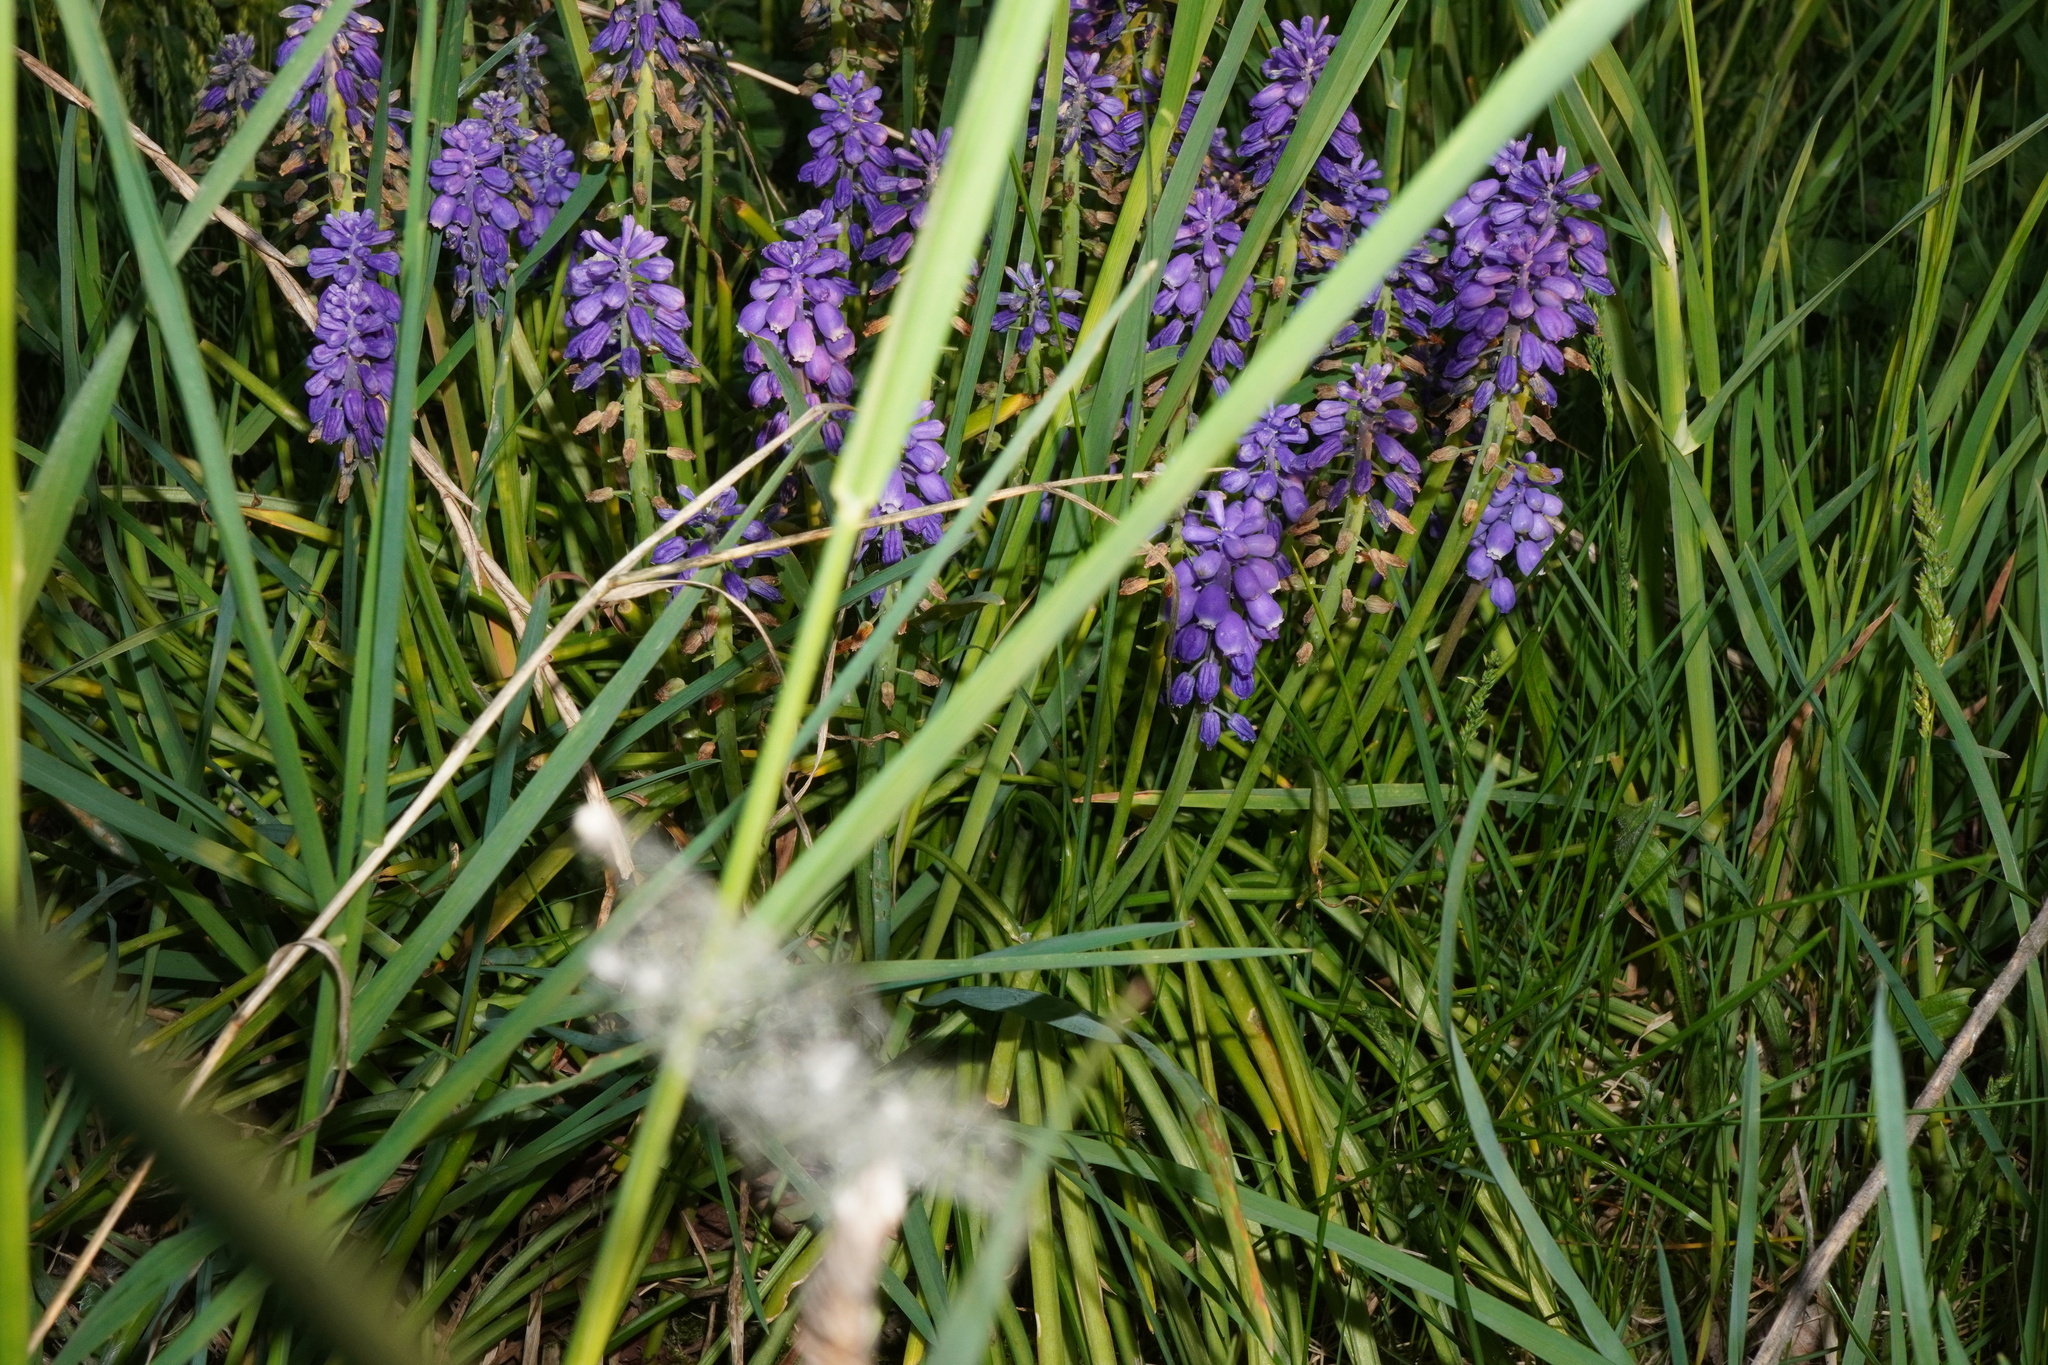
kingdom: Plantae
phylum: Tracheophyta
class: Liliopsida
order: Asparagales
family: Asparagaceae
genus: Muscari
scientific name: Muscari armeniacum
